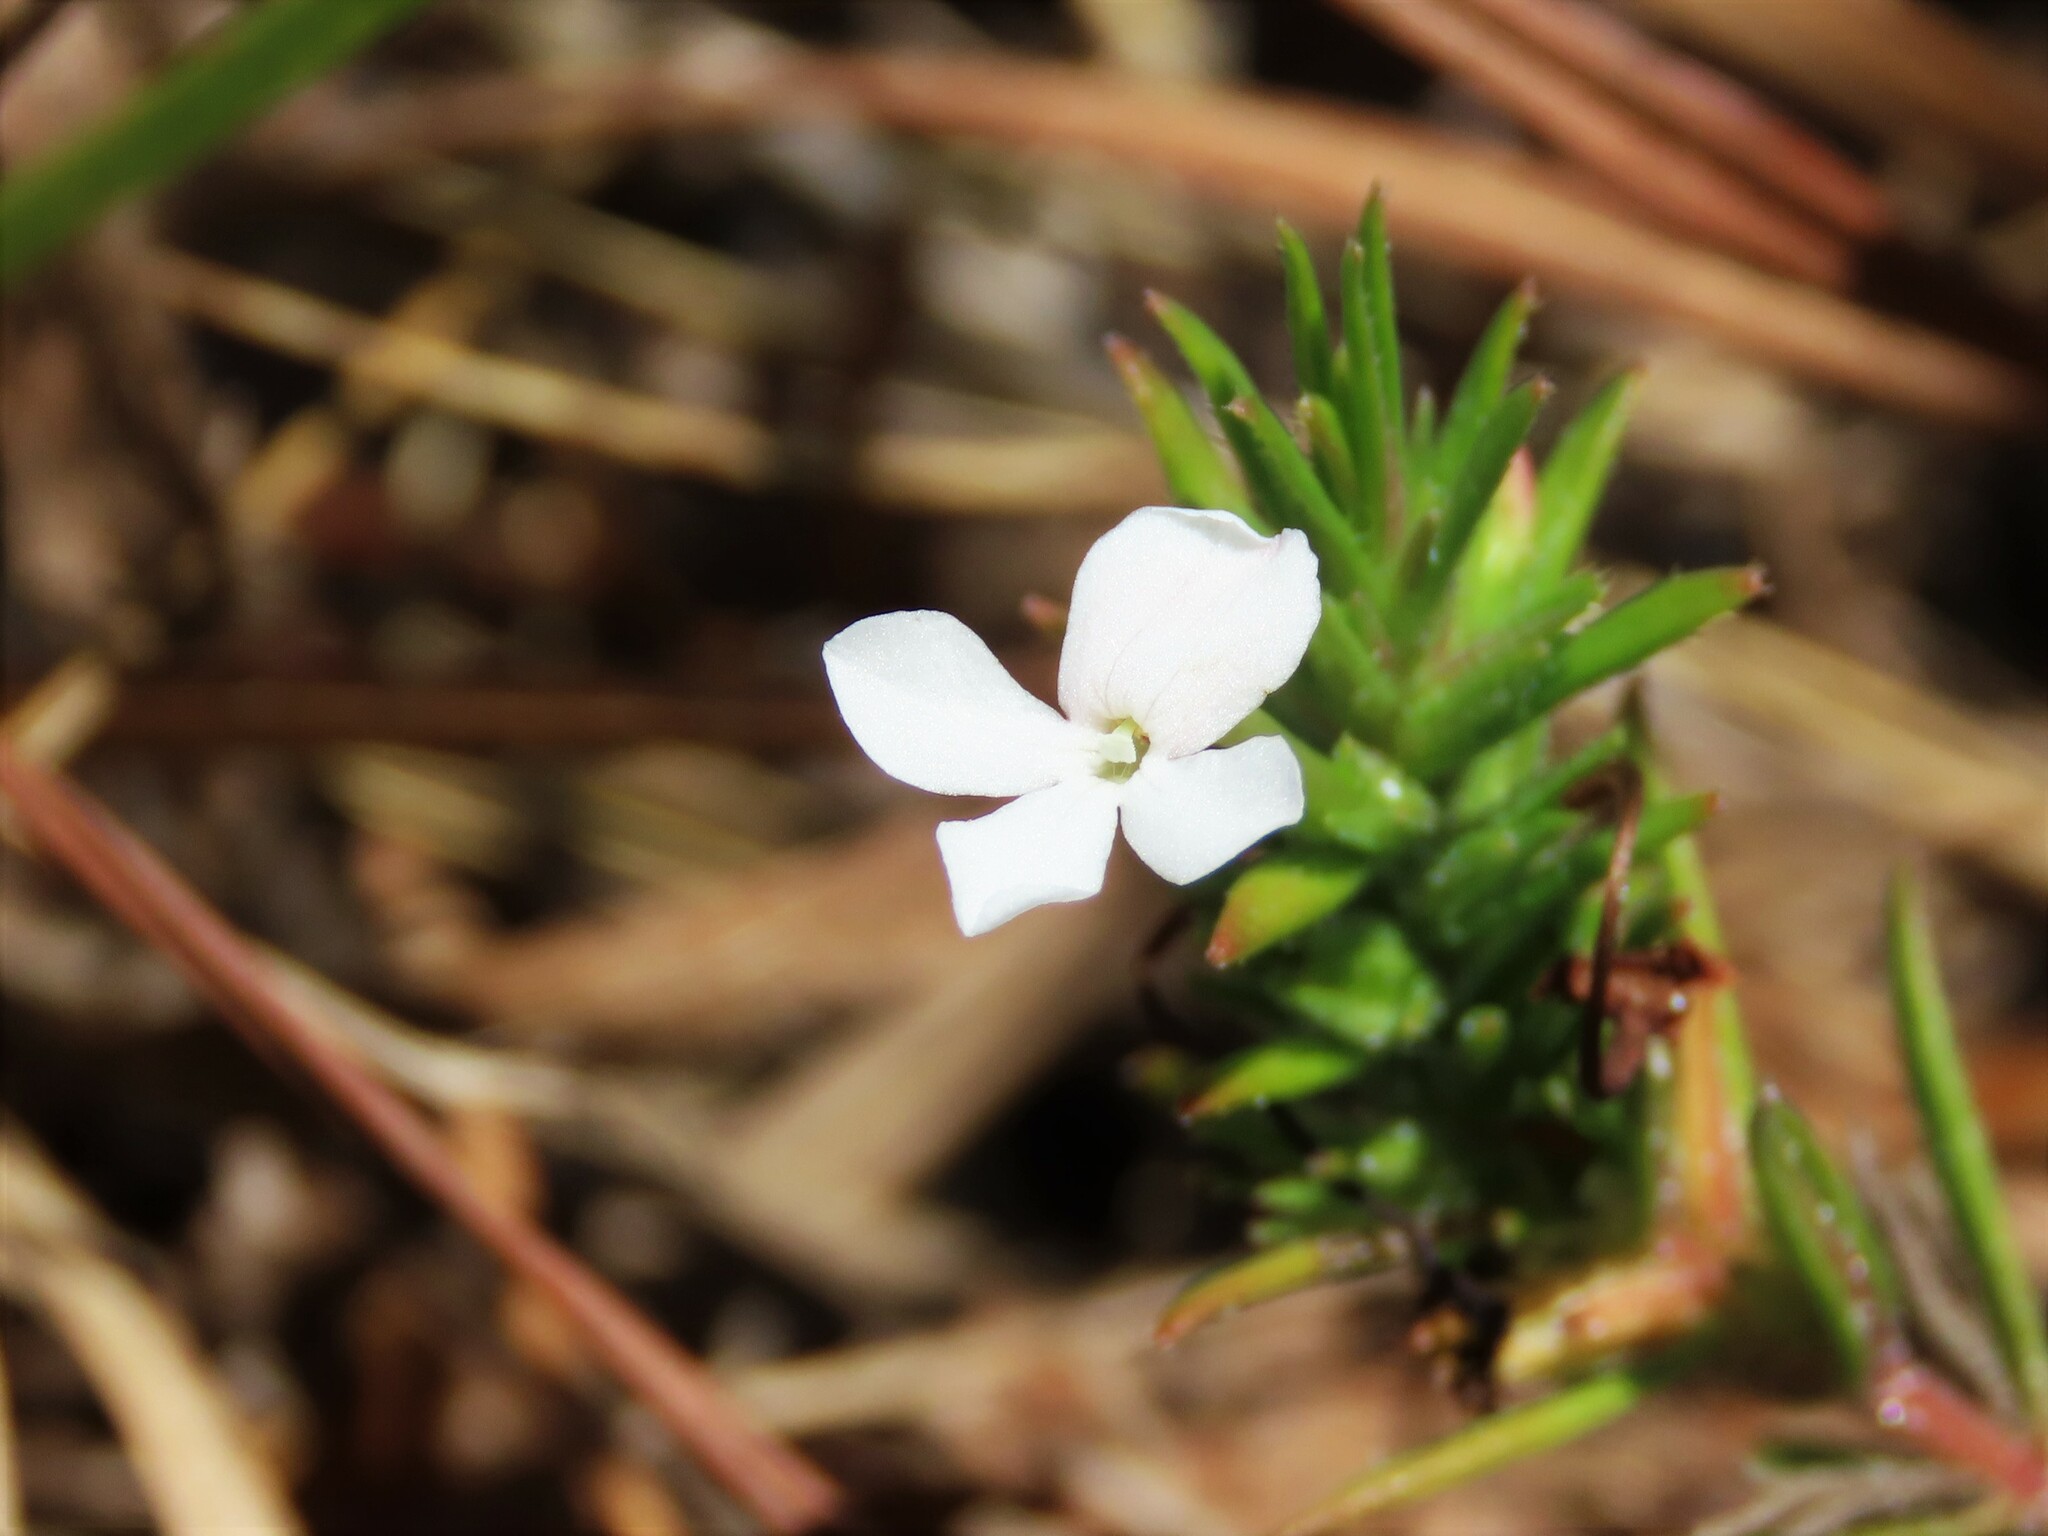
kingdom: Plantae
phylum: Tracheophyta
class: Magnoliopsida
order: Lamiales
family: Plantaginaceae
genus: Gratiola
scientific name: Gratiola hispida
